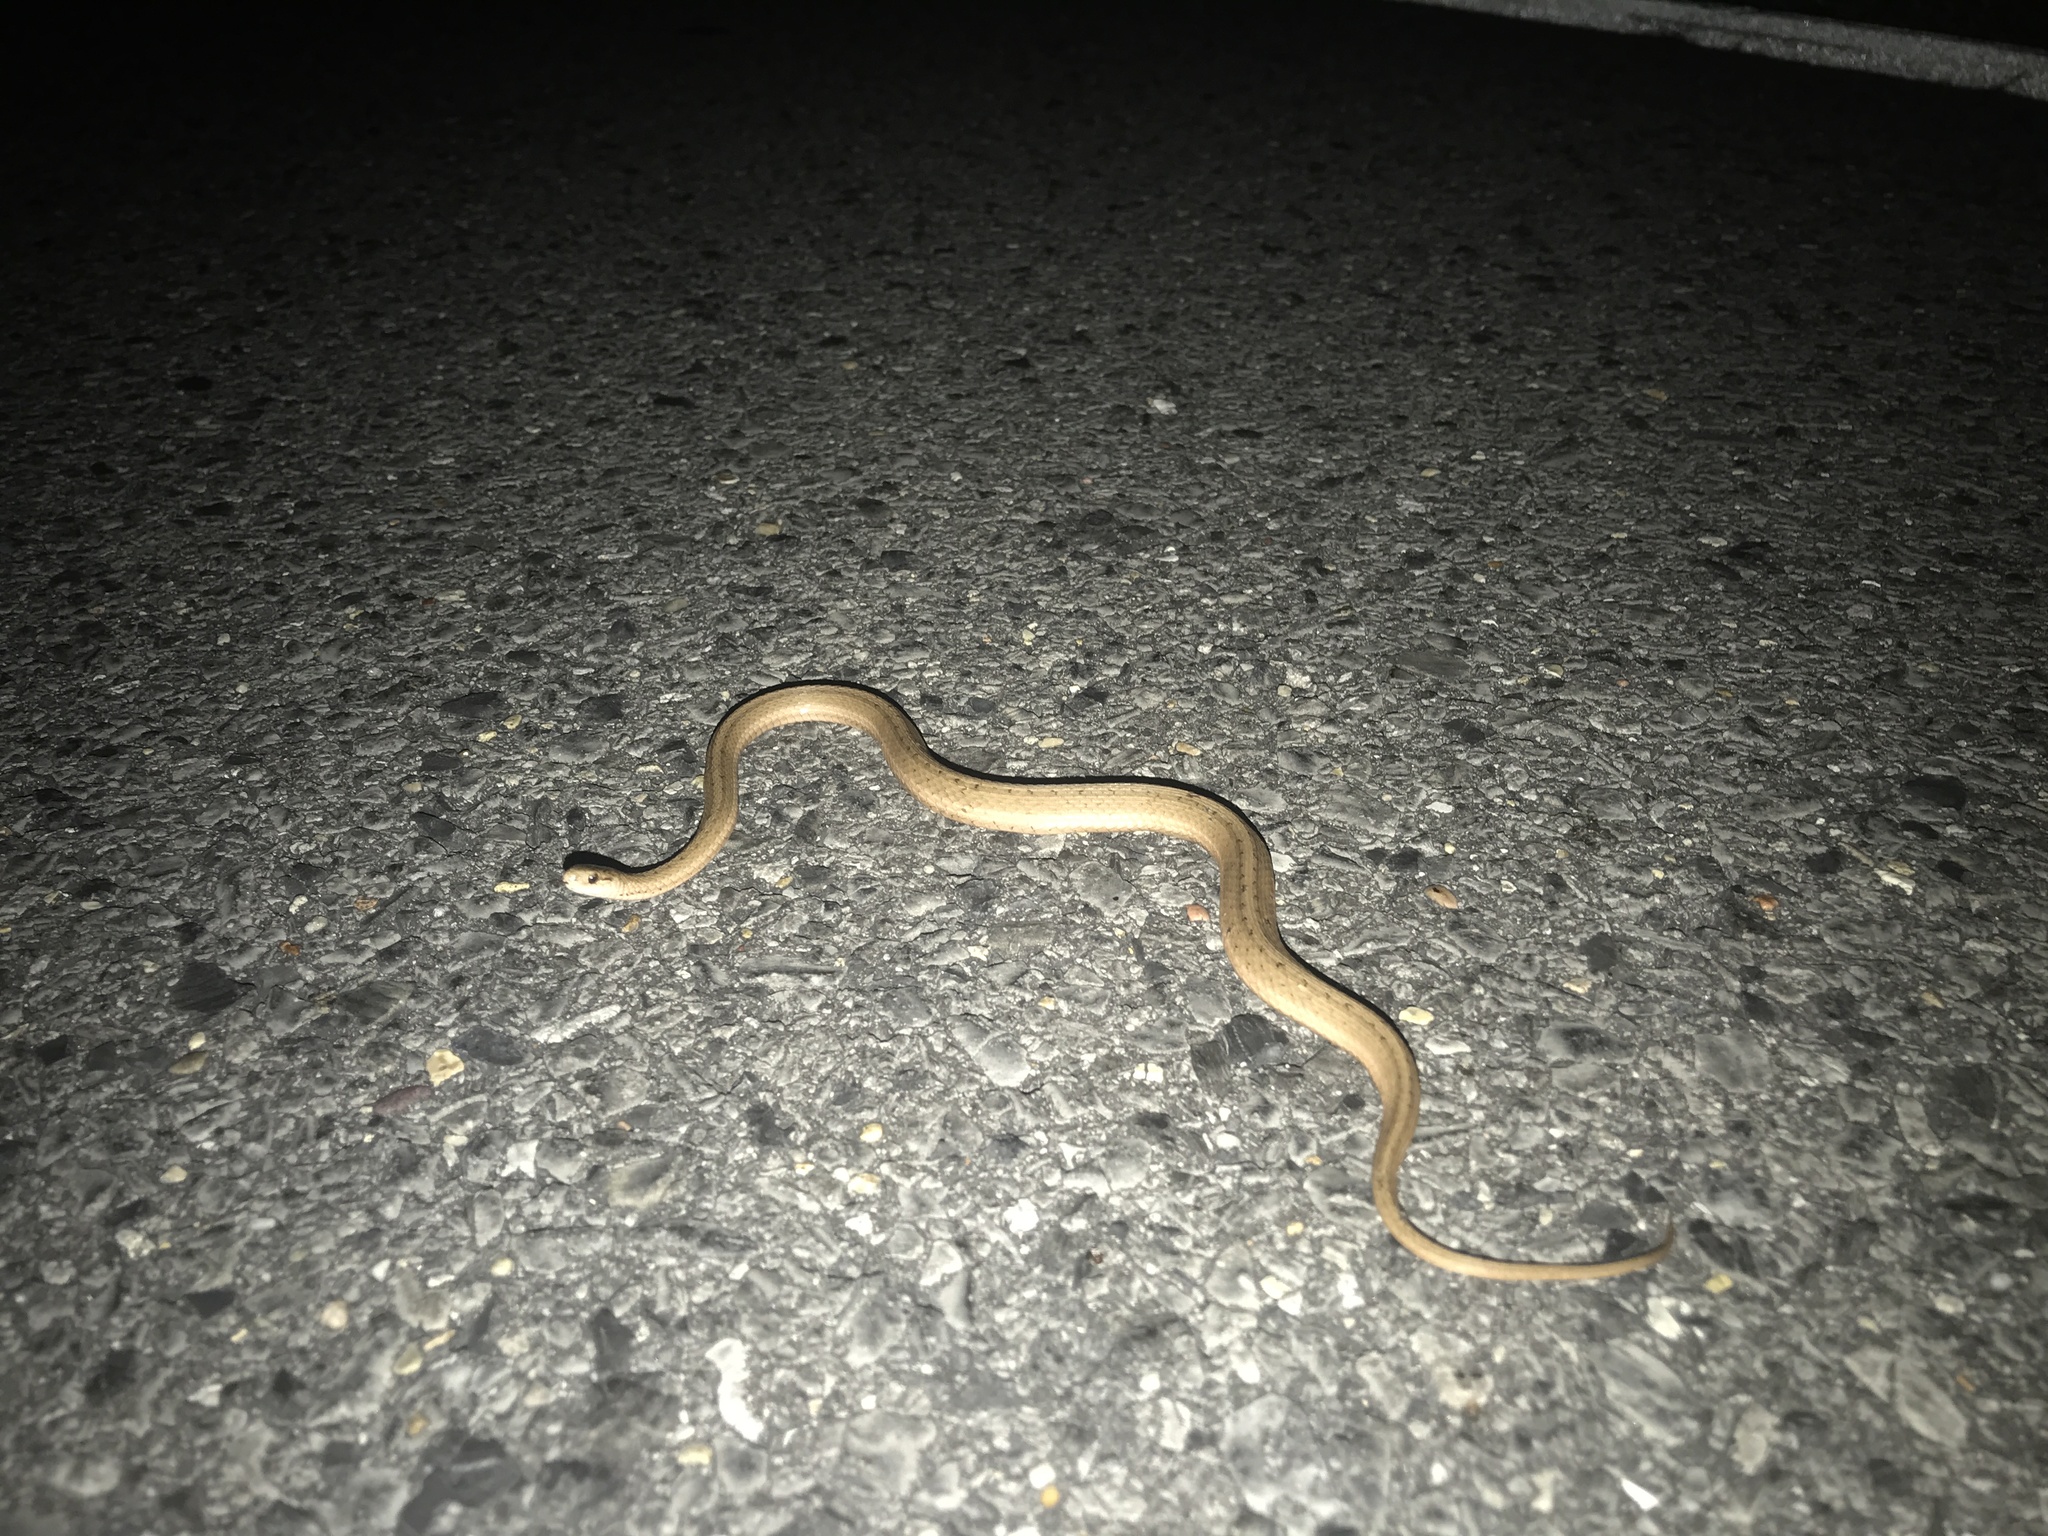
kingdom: Animalia
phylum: Chordata
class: Squamata
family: Colubridae
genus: Storeria
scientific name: Storeria dekayi
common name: (dekay’s) brown snake
